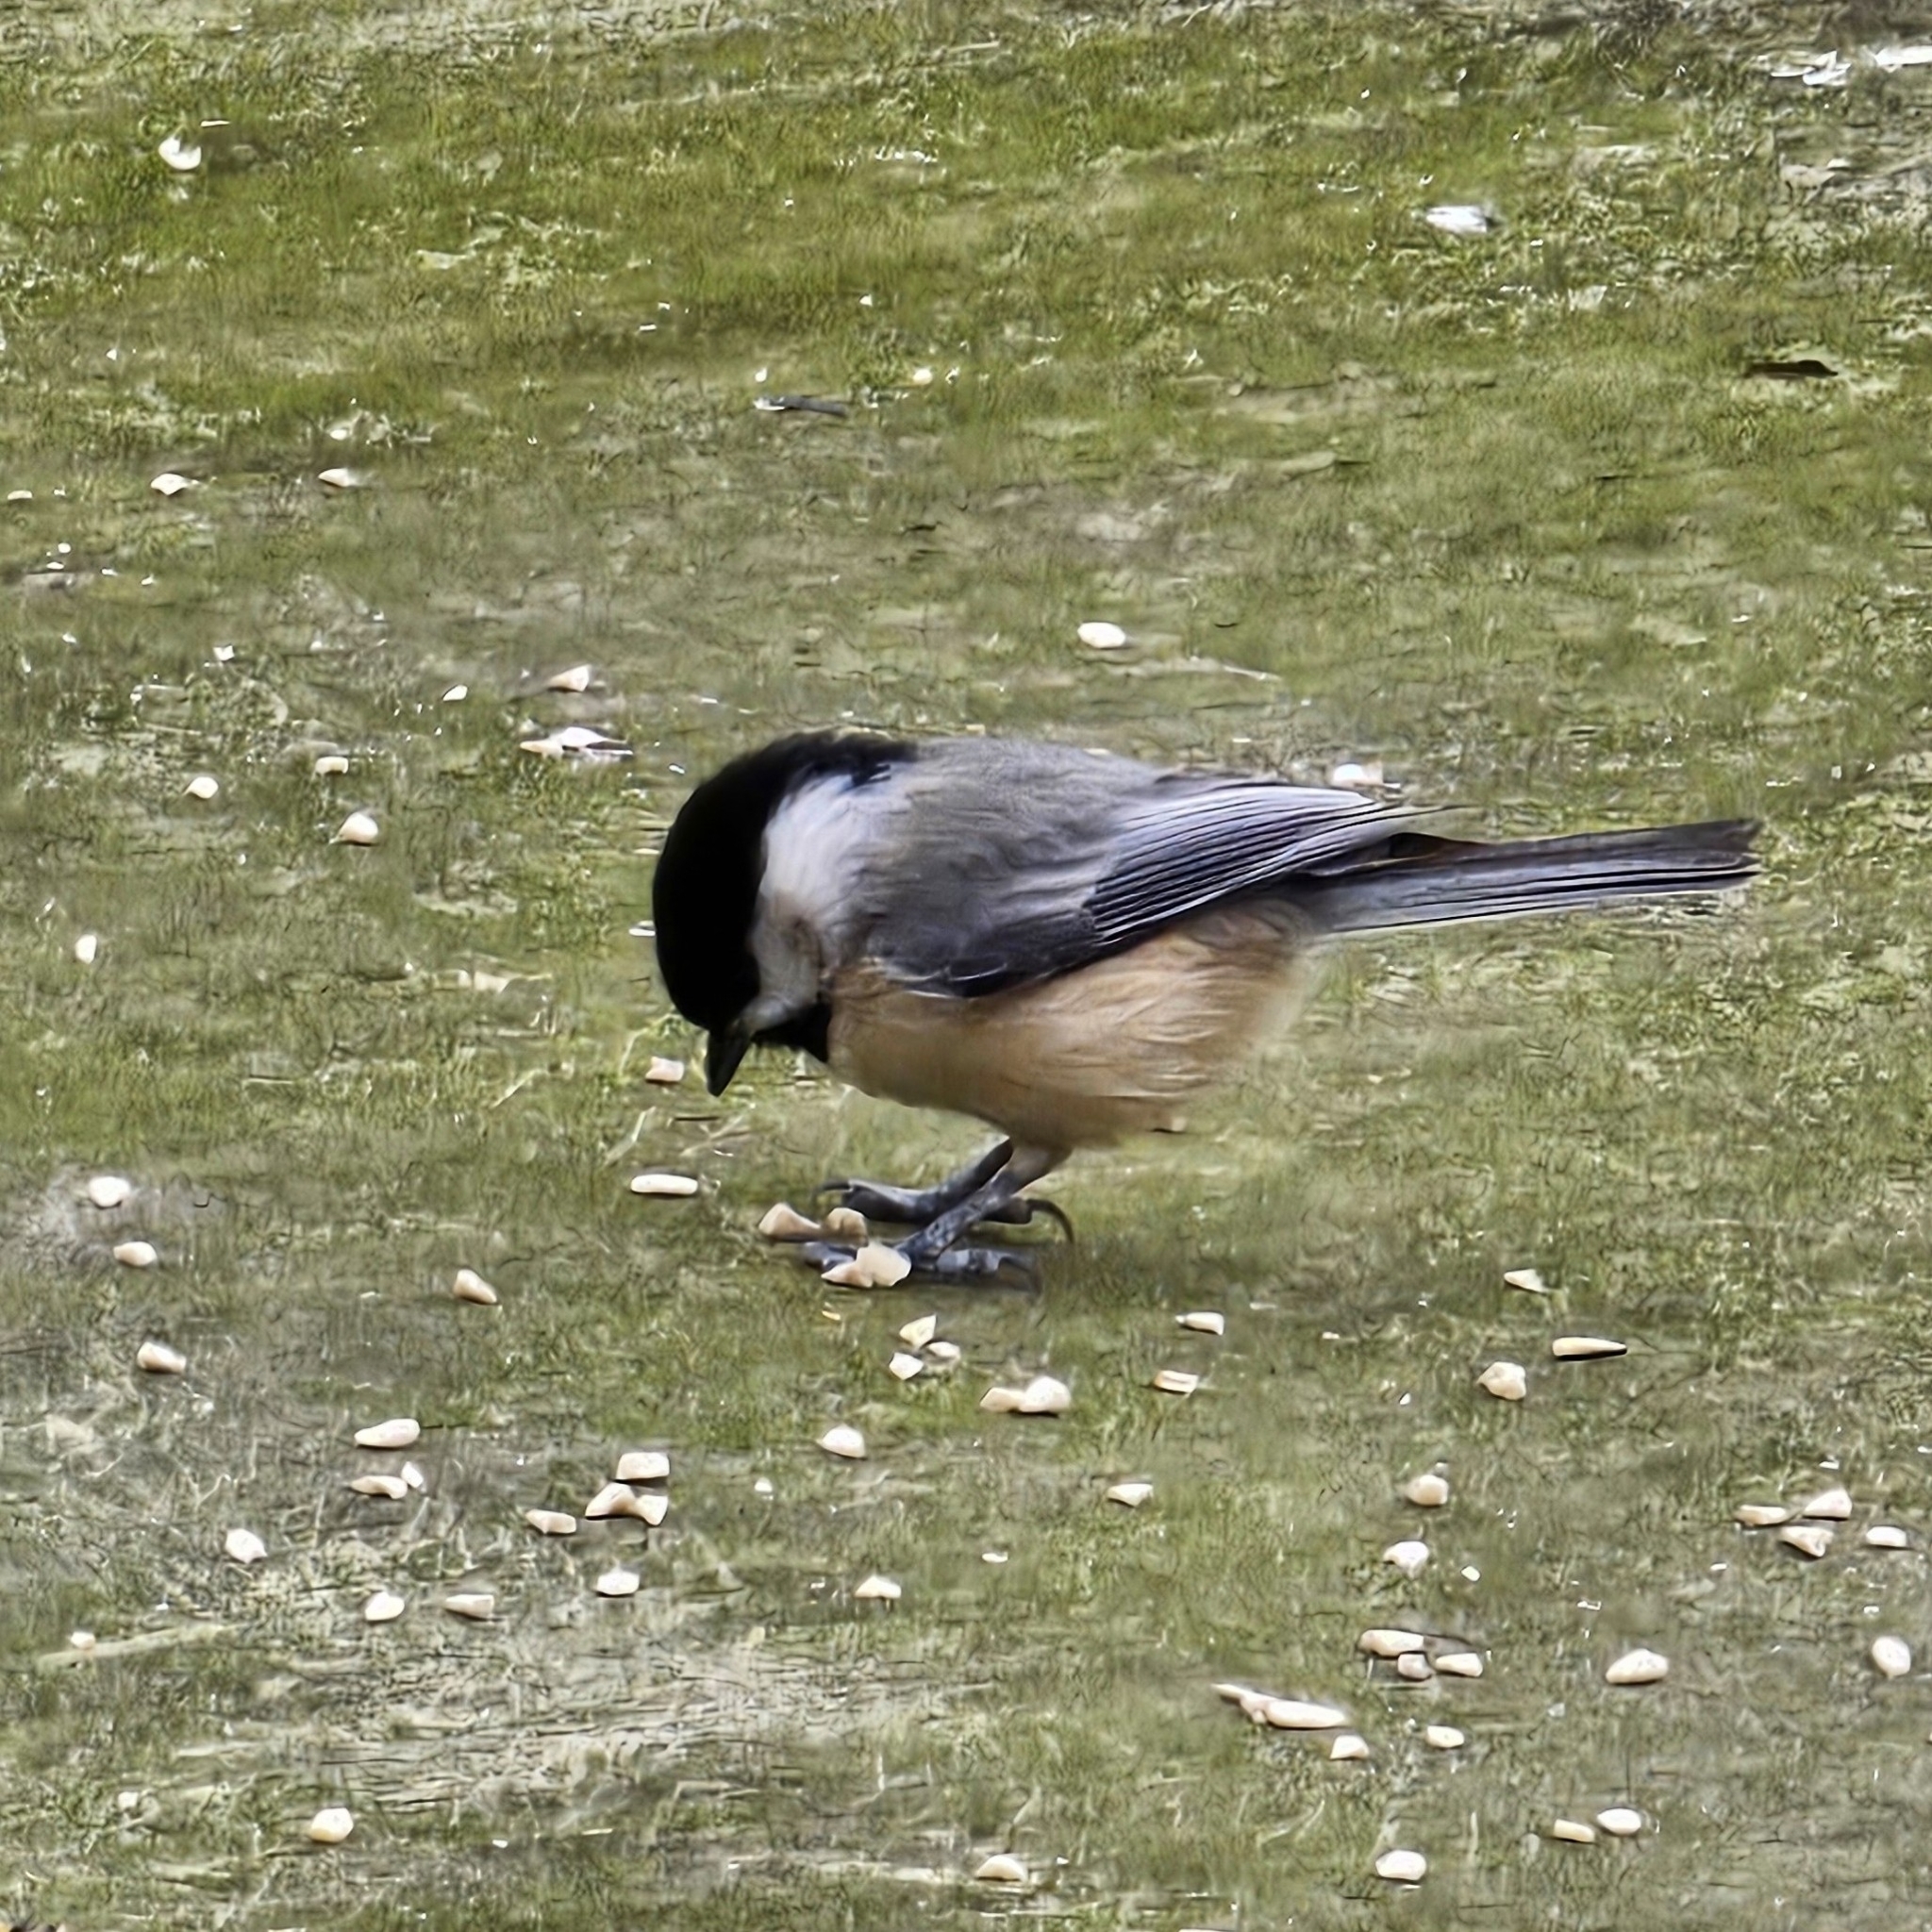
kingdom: Animalia
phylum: Chordata
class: Aves
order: Passeriformes
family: Paridae
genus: Poecile
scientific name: Poecile carolinensis
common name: Carolina chickadee
